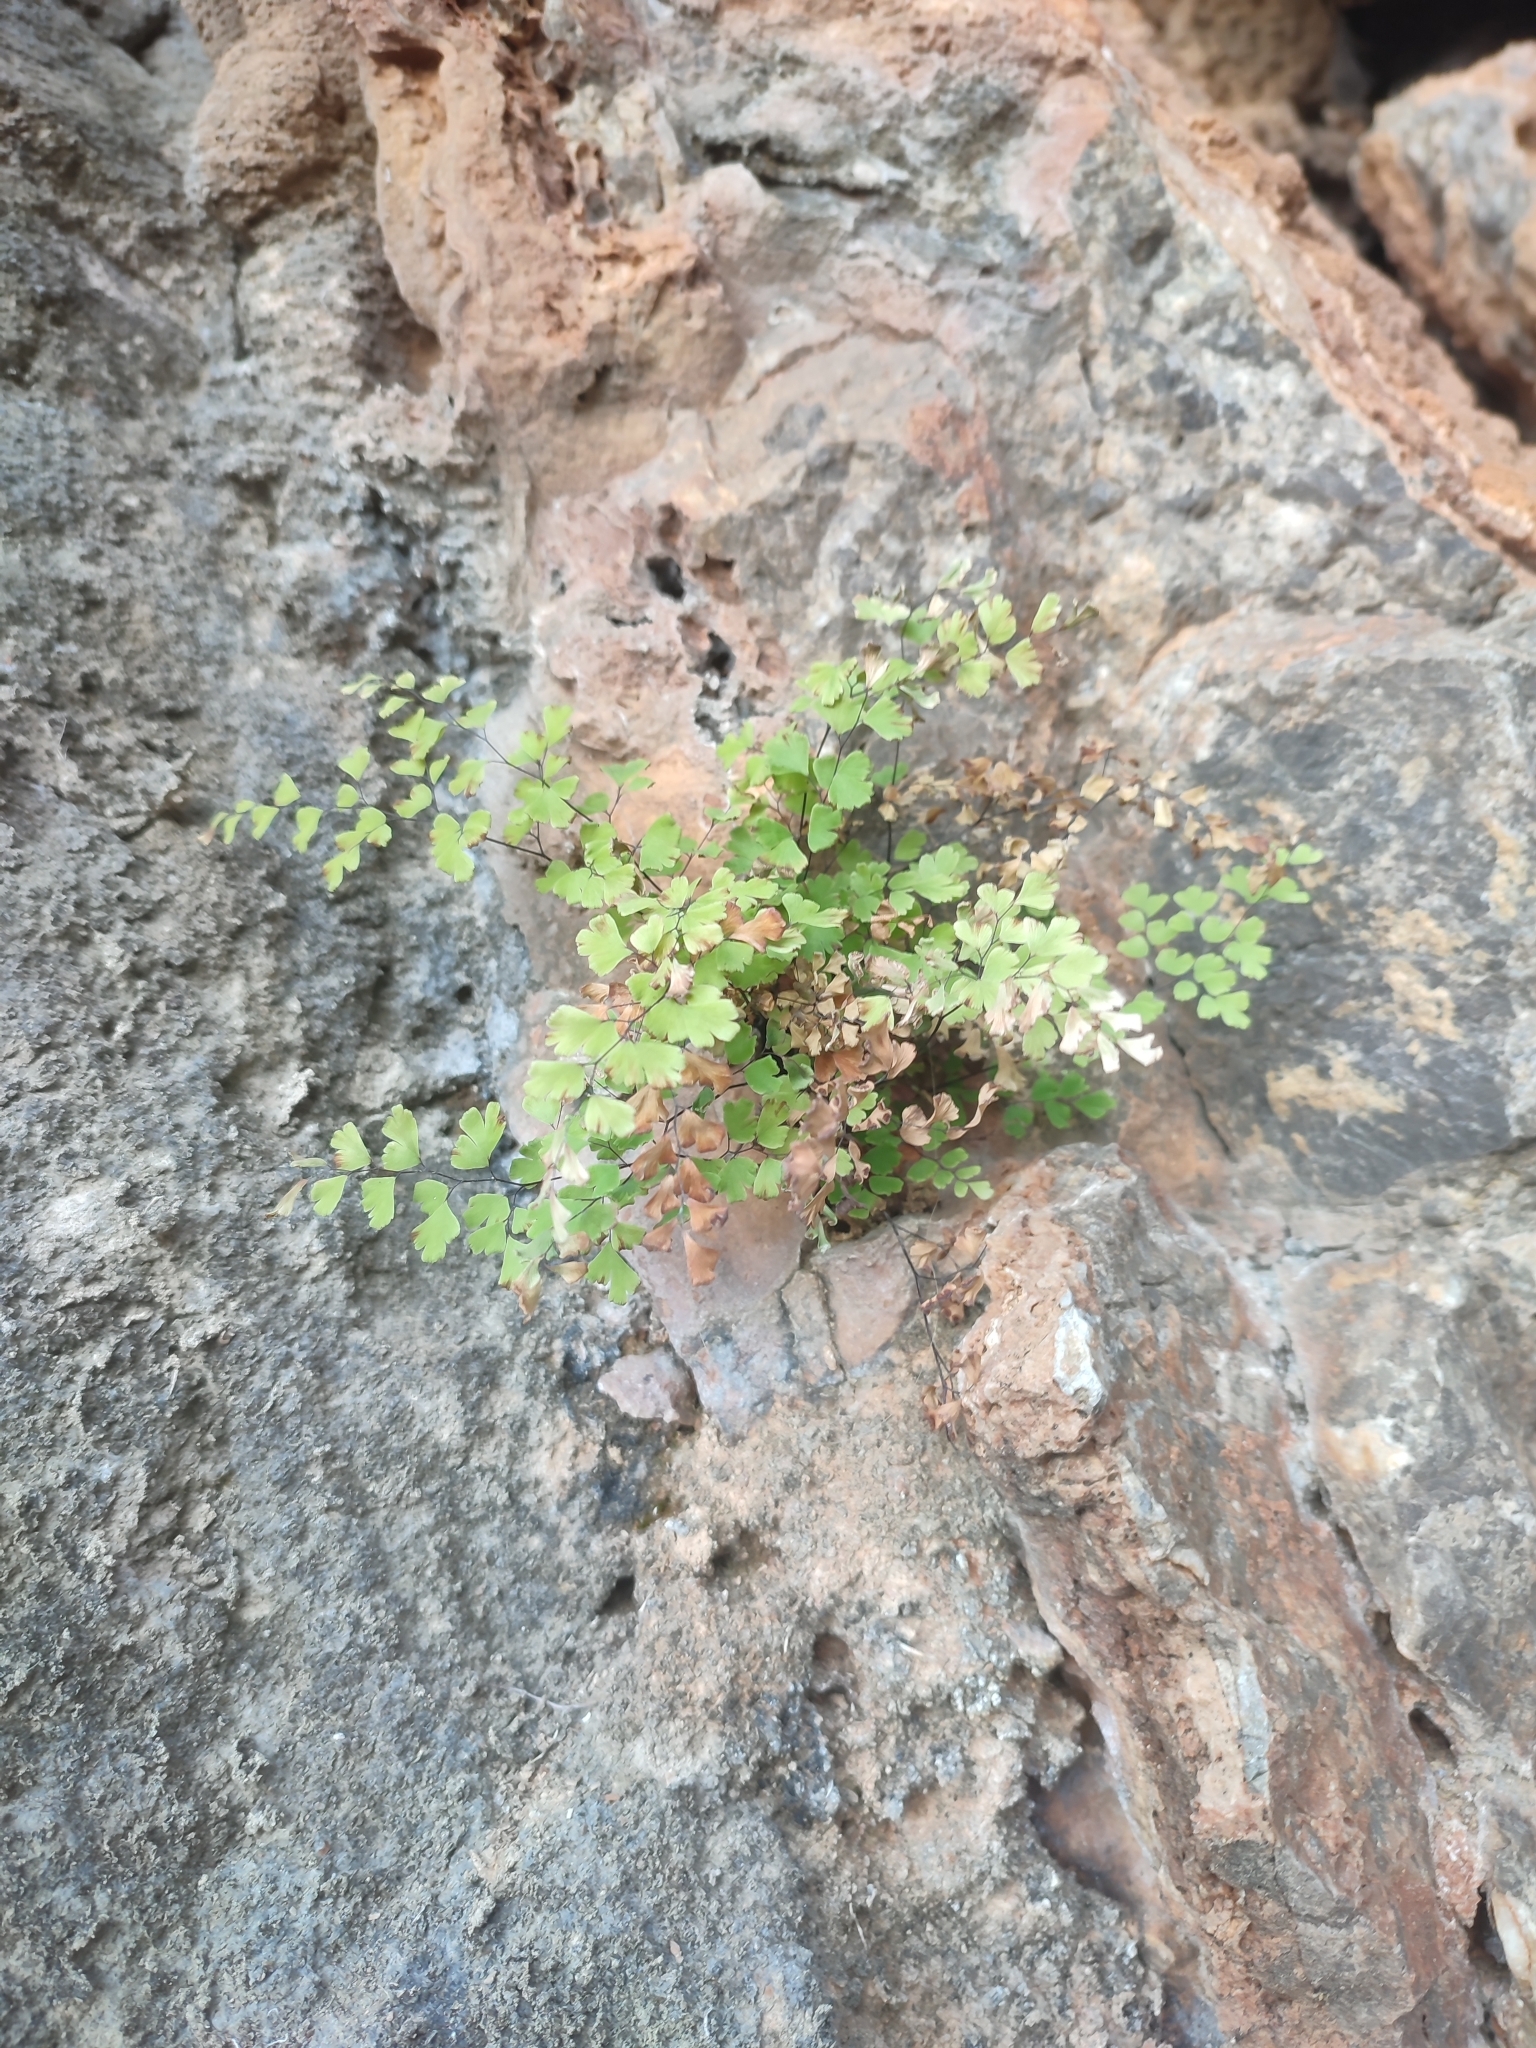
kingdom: Plantae
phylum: Tracheophyta
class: Polypodiopsida
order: Polypodiales
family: Pteridaceae
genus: Adiantum
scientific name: Adiantum capillus-veneris
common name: Maidenhair fern
